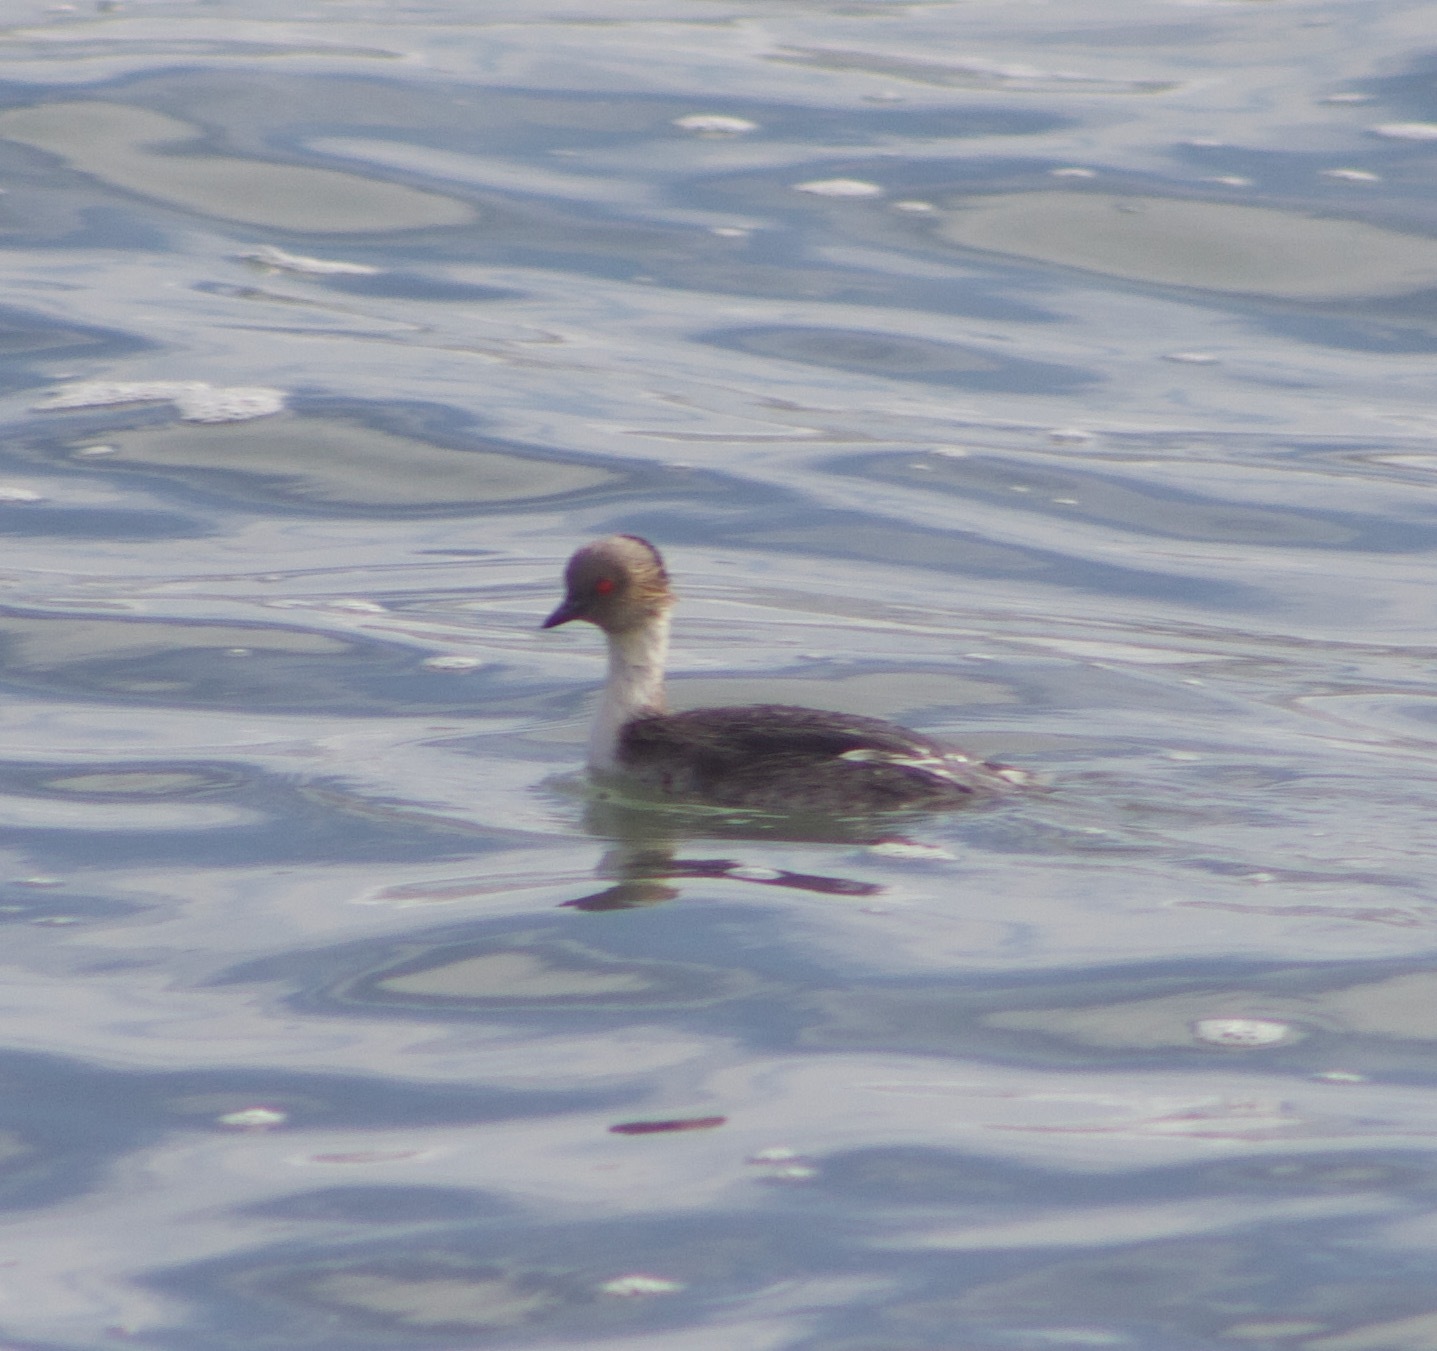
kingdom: Animalia
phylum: Chordata
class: Aves
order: Podicipediformes
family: Podicipedidae
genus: Podiceps
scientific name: Podiceps occipitalis
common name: Silvery grebe
